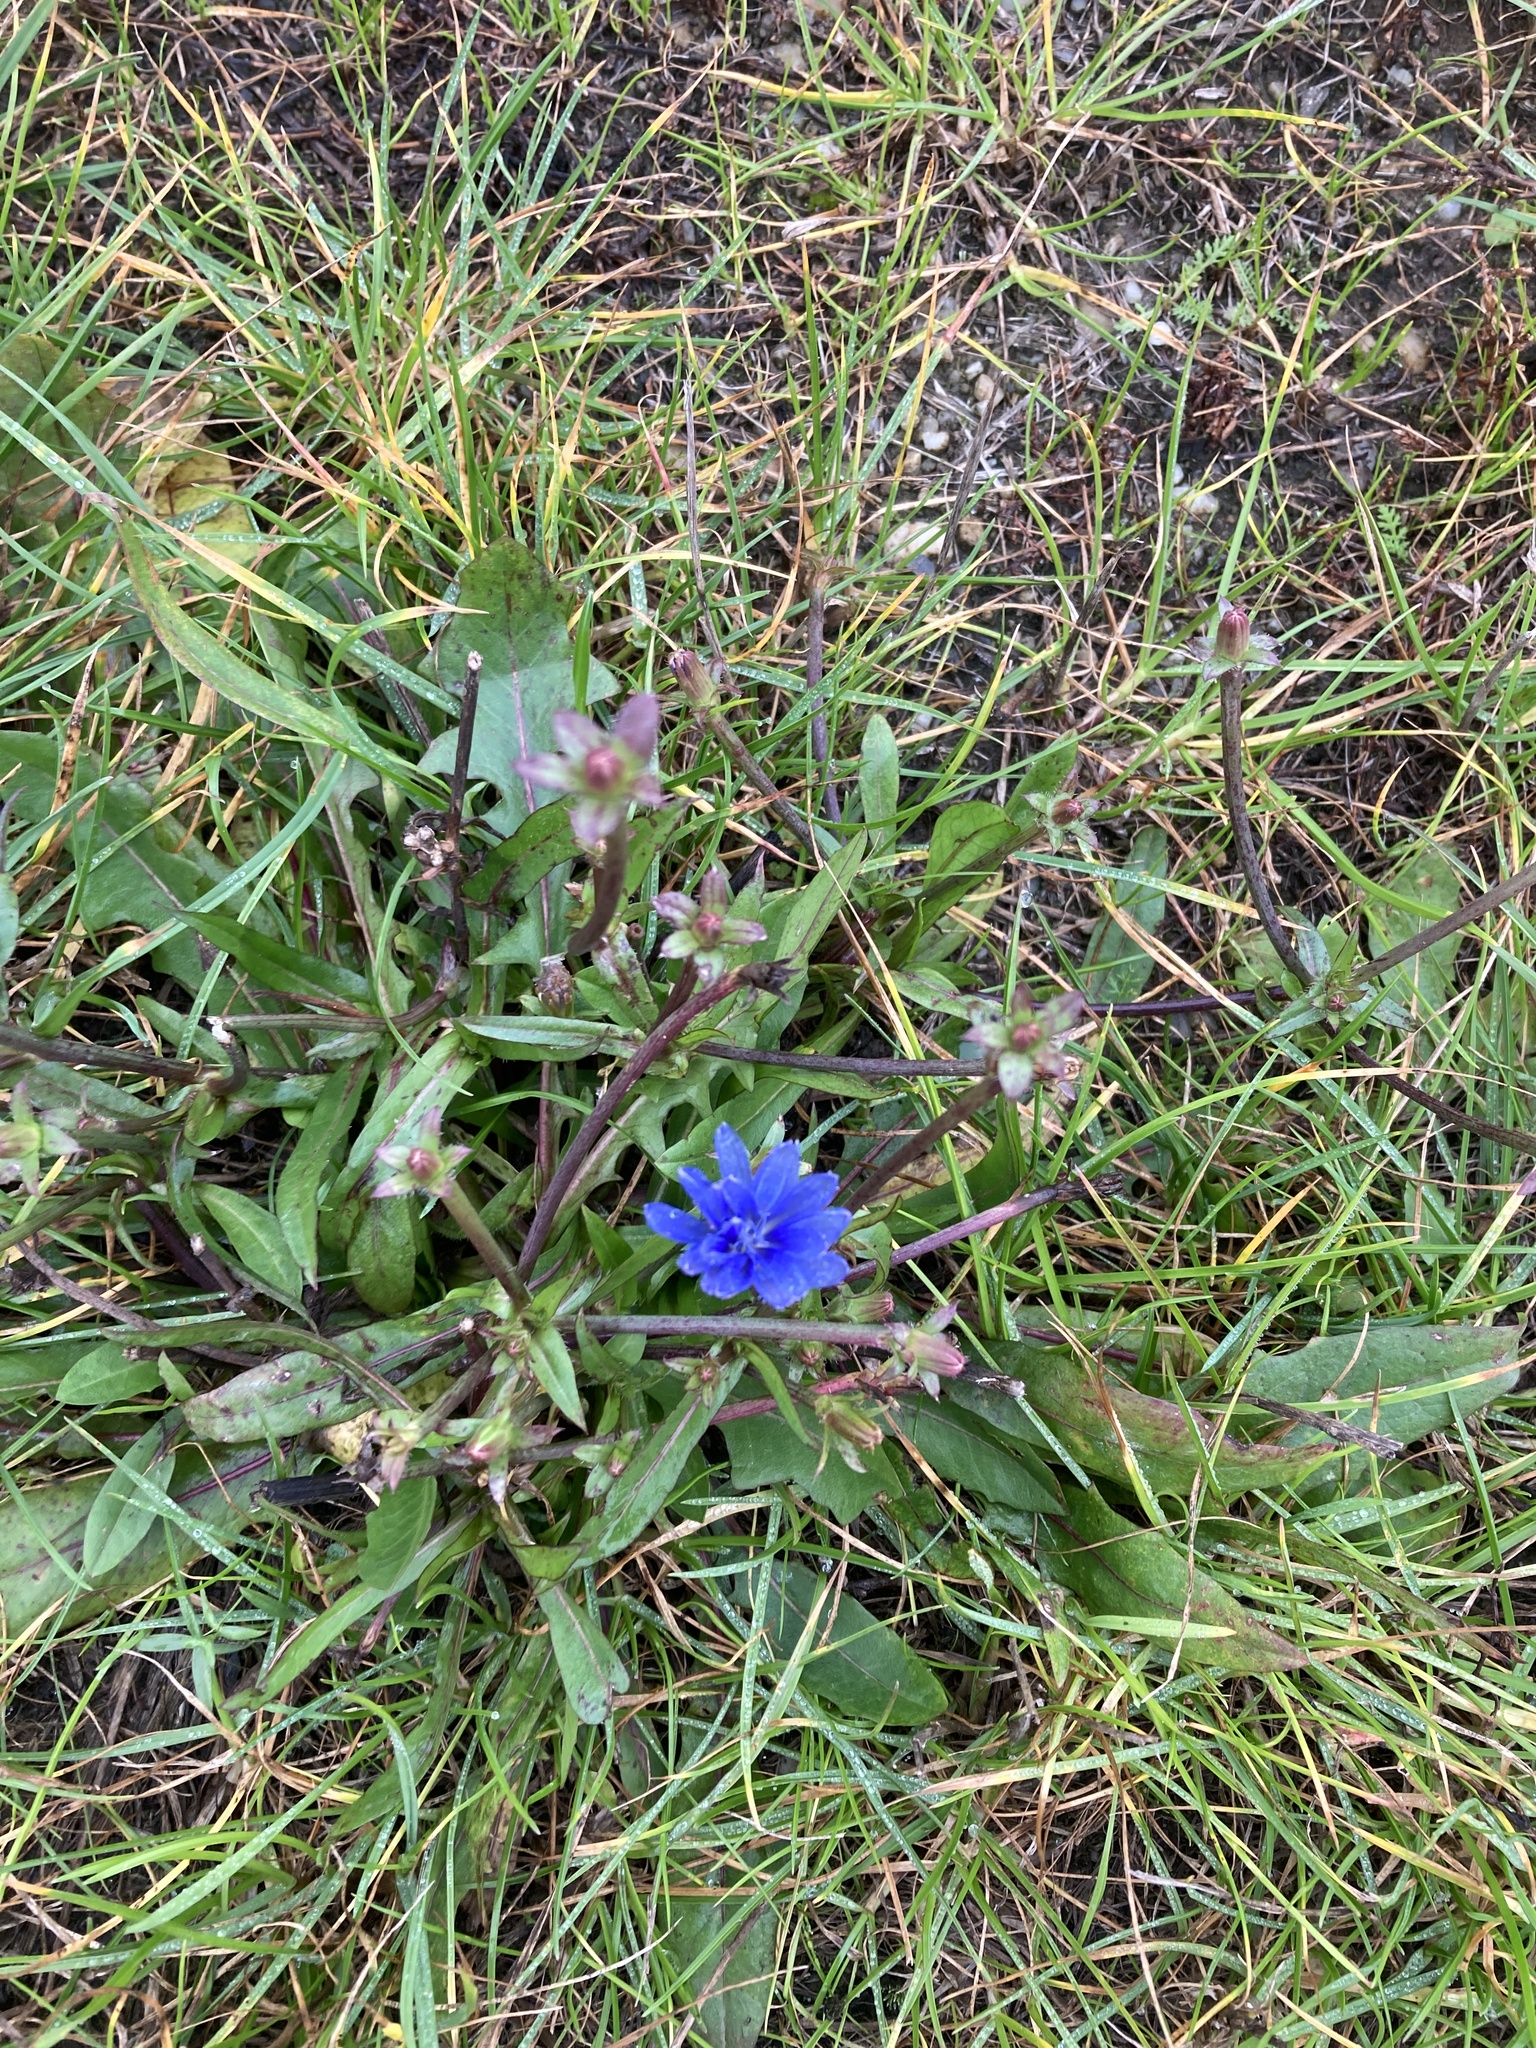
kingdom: Plantae
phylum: Tracheophyta
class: Magnoliopsida
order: Asterales
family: Asteraceae
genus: Cichorium
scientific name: Cichorium intybus
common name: Chicory
